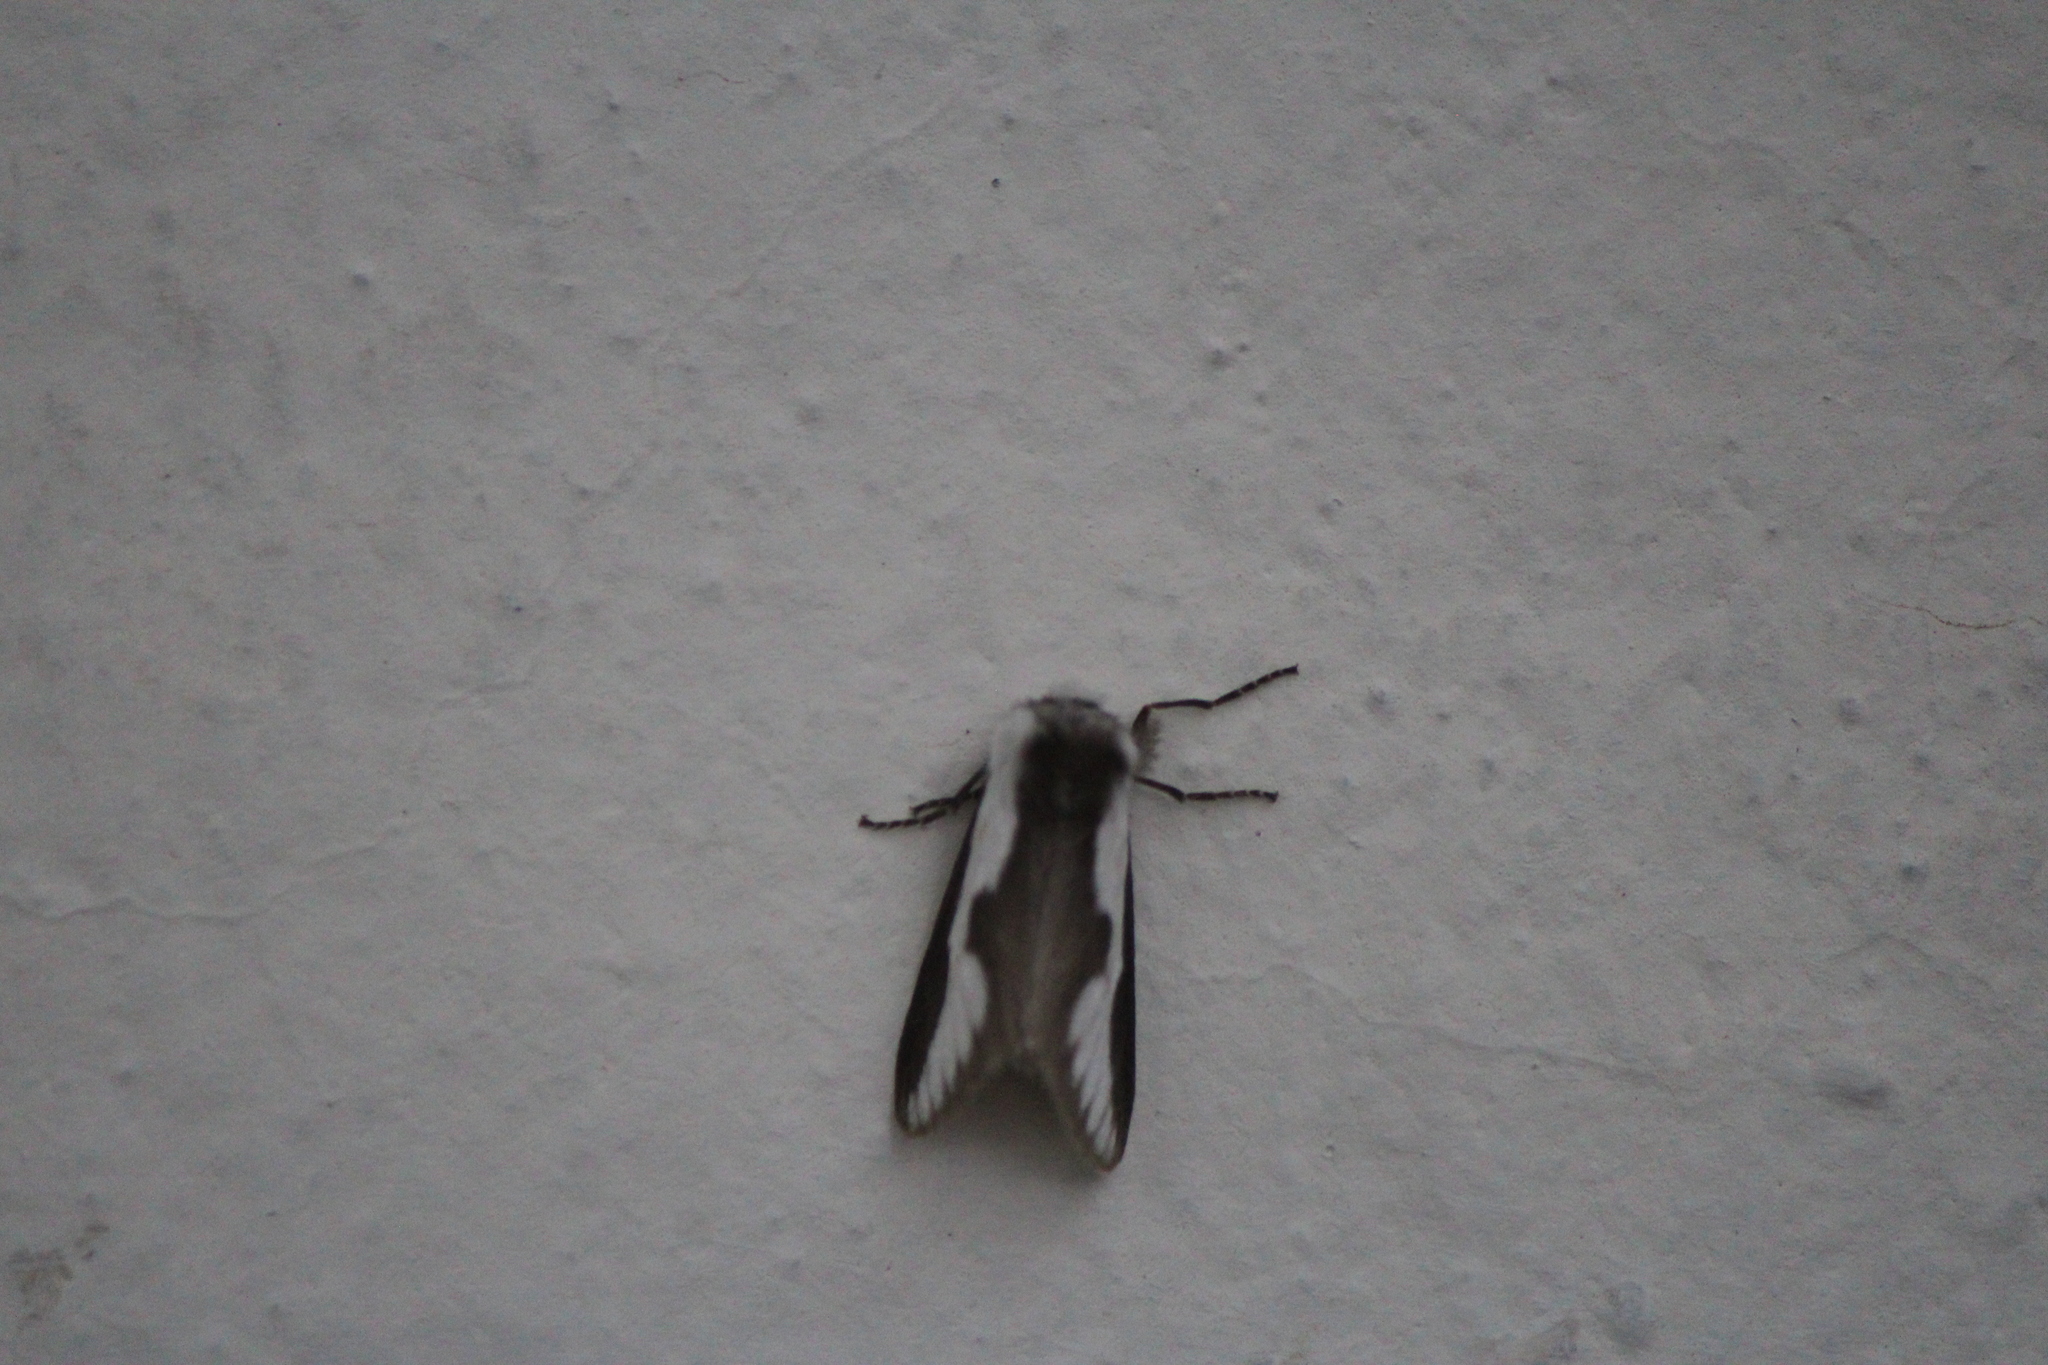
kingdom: Animalia
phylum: Arthropoda
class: Insecta
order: Lepidoptera
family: Megalopygidae
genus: Norape
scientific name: Norape tener
